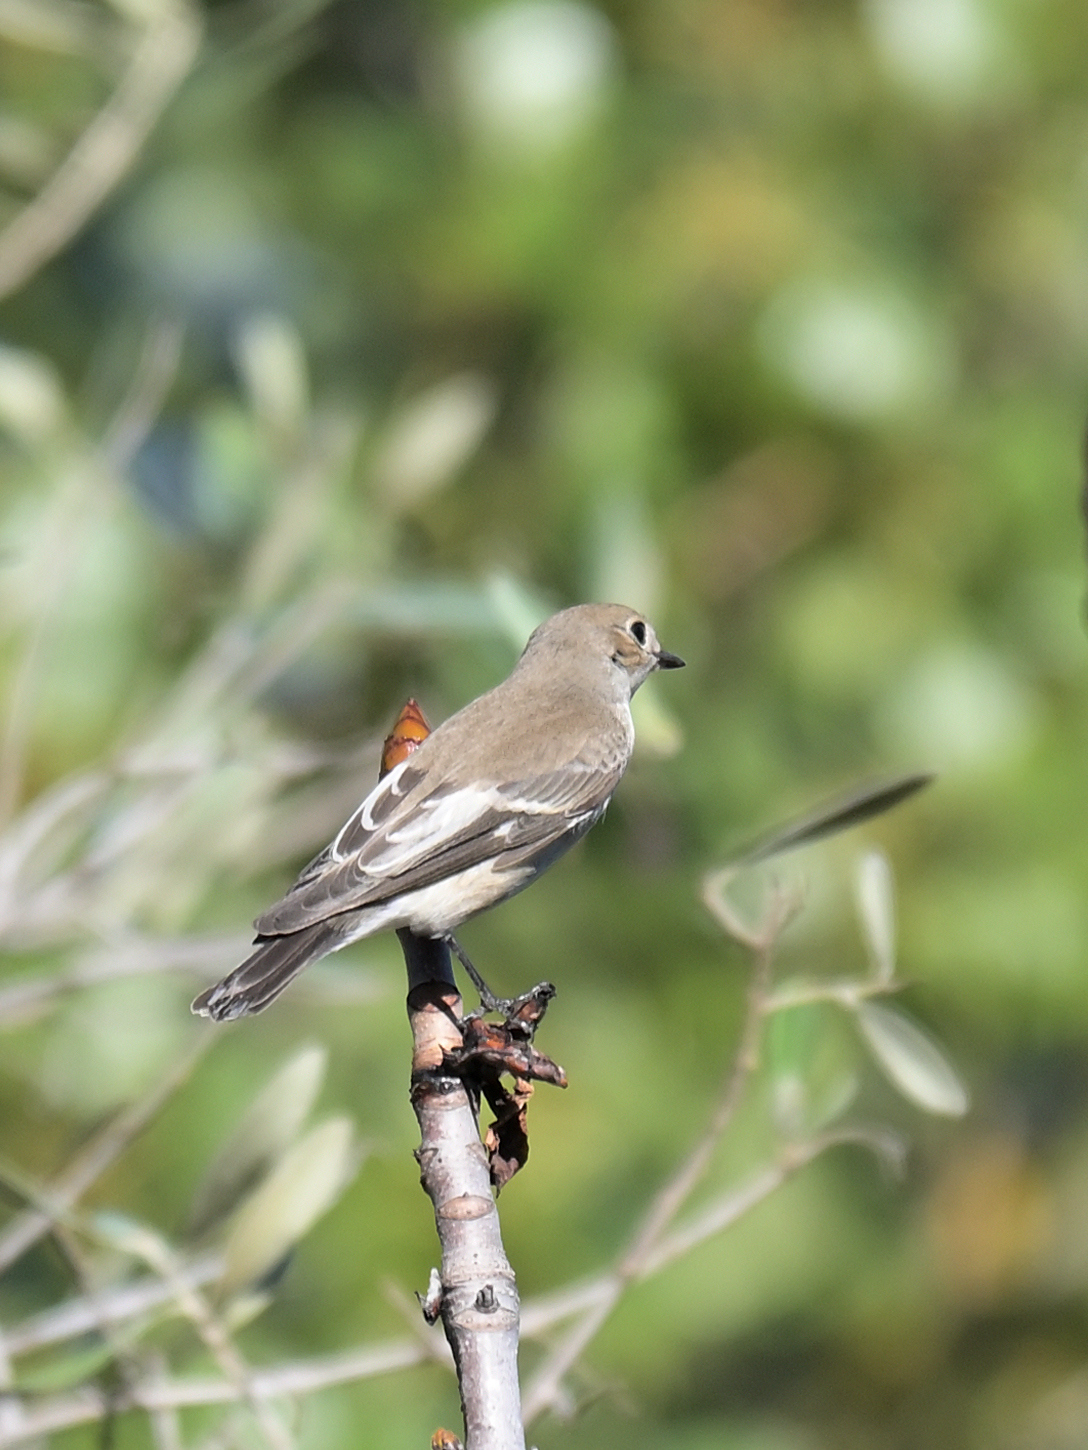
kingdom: Animalia
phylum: Chordata
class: Aves
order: Passeriformes
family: Muscicapidae
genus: Ficedula
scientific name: Ficedula hypoleuca
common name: European pied flycatcher
